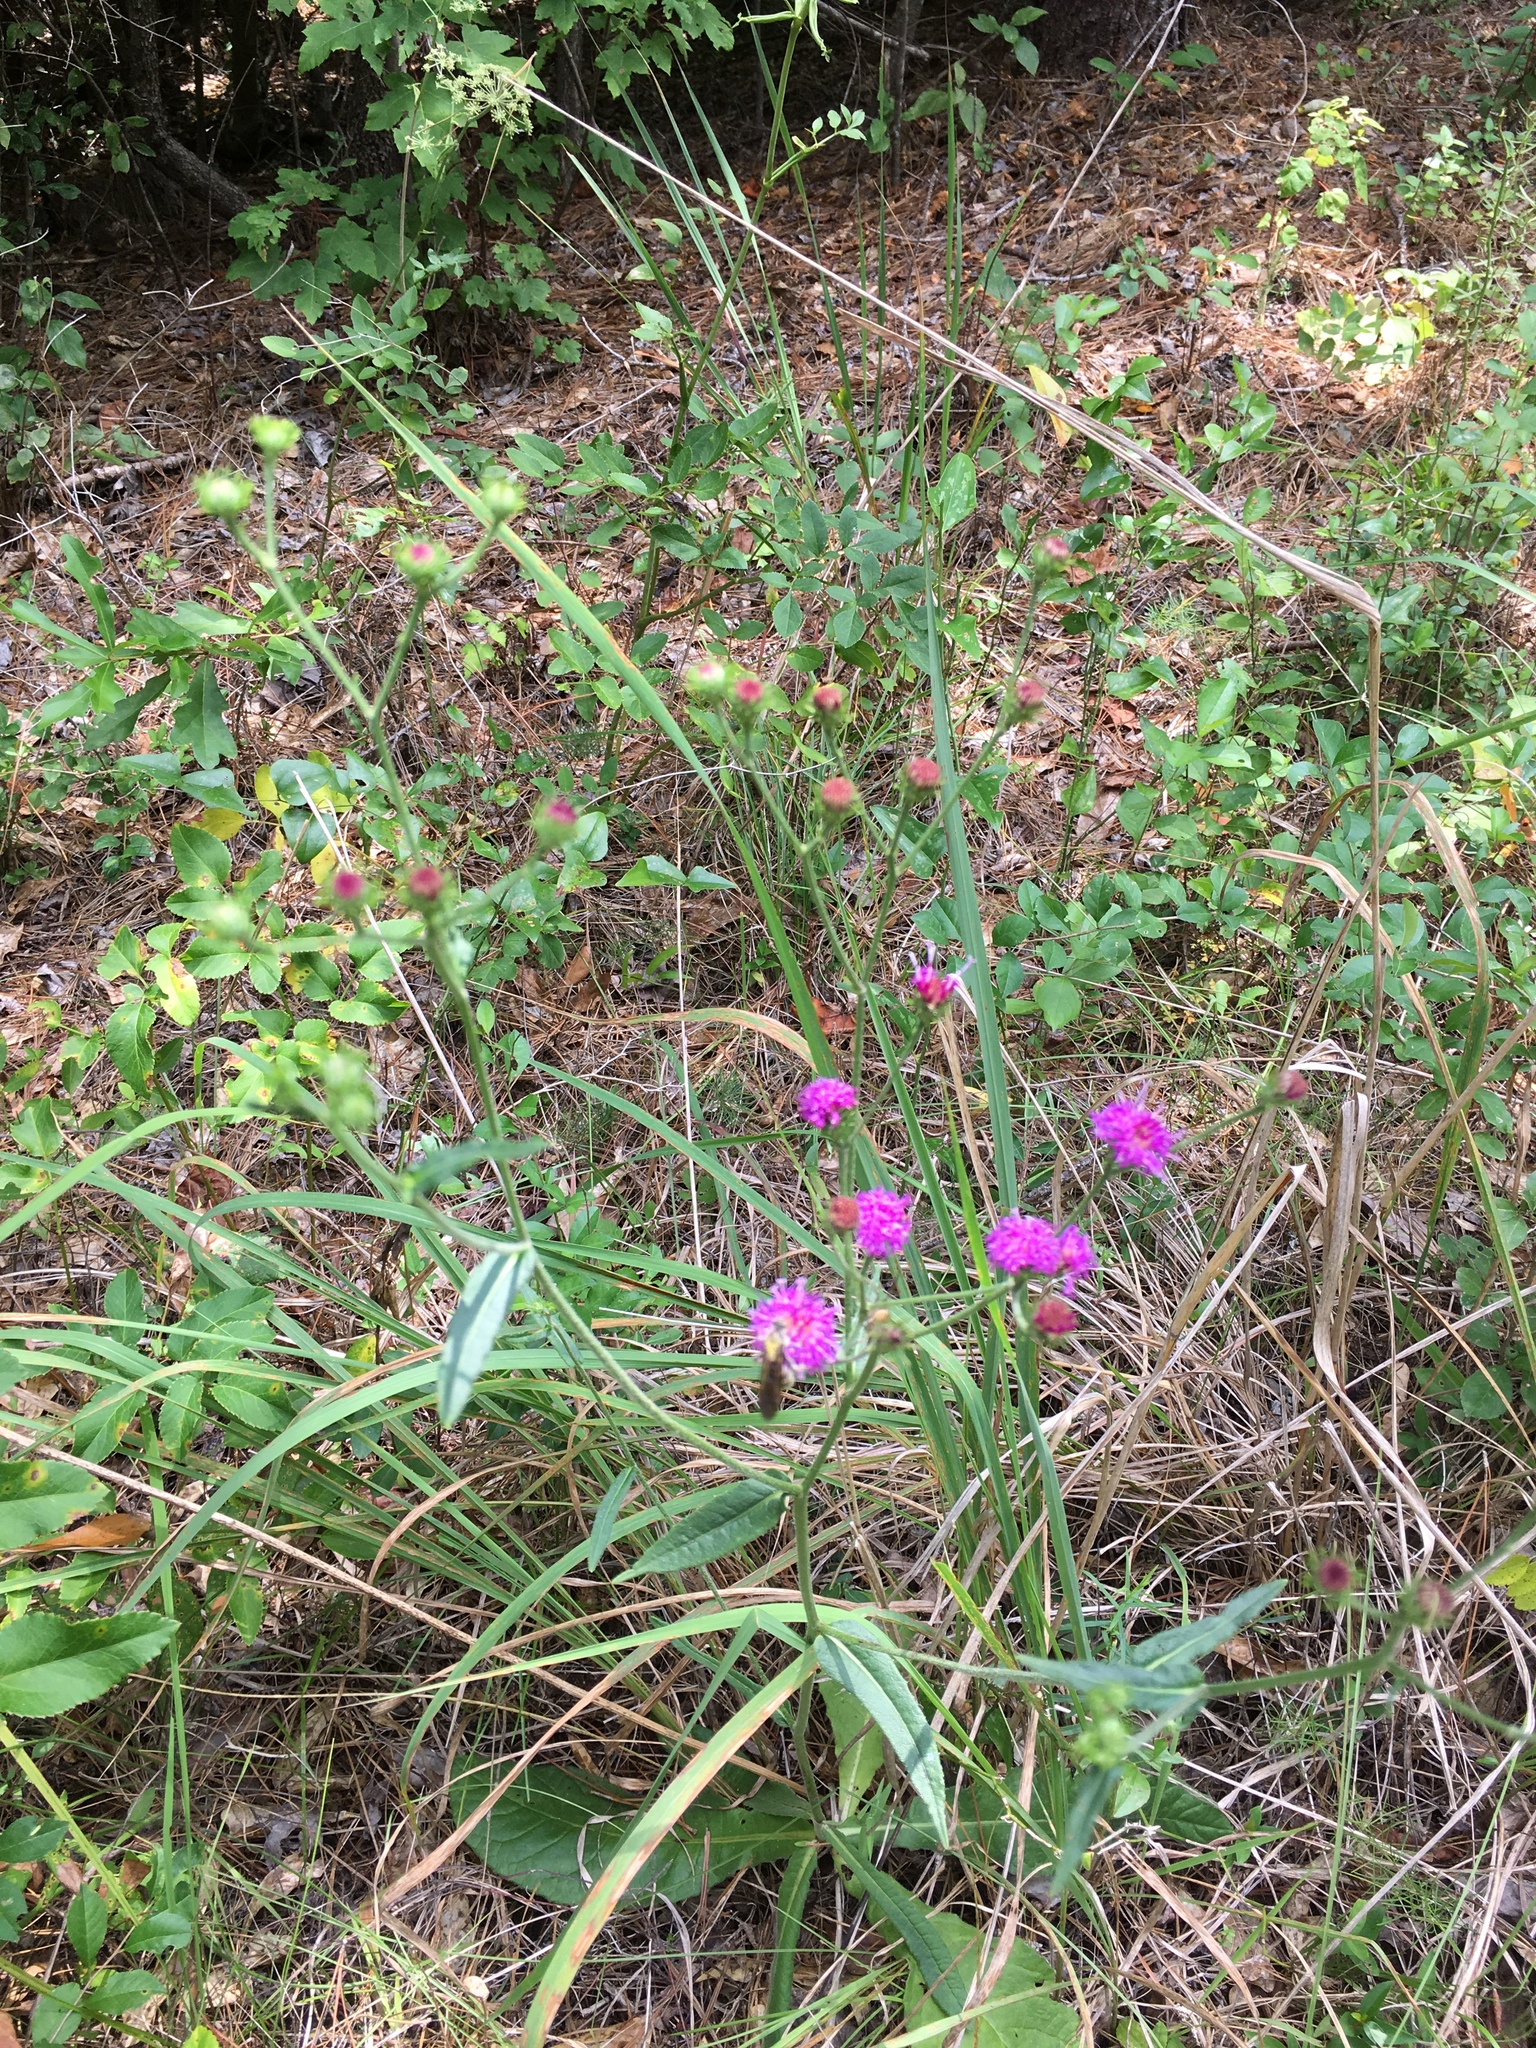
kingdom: Plantae
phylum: Tracheophyta
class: Magnoliopsida
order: Asterales
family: Asteraceae
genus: Vernonia
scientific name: Vernonia acaulis
